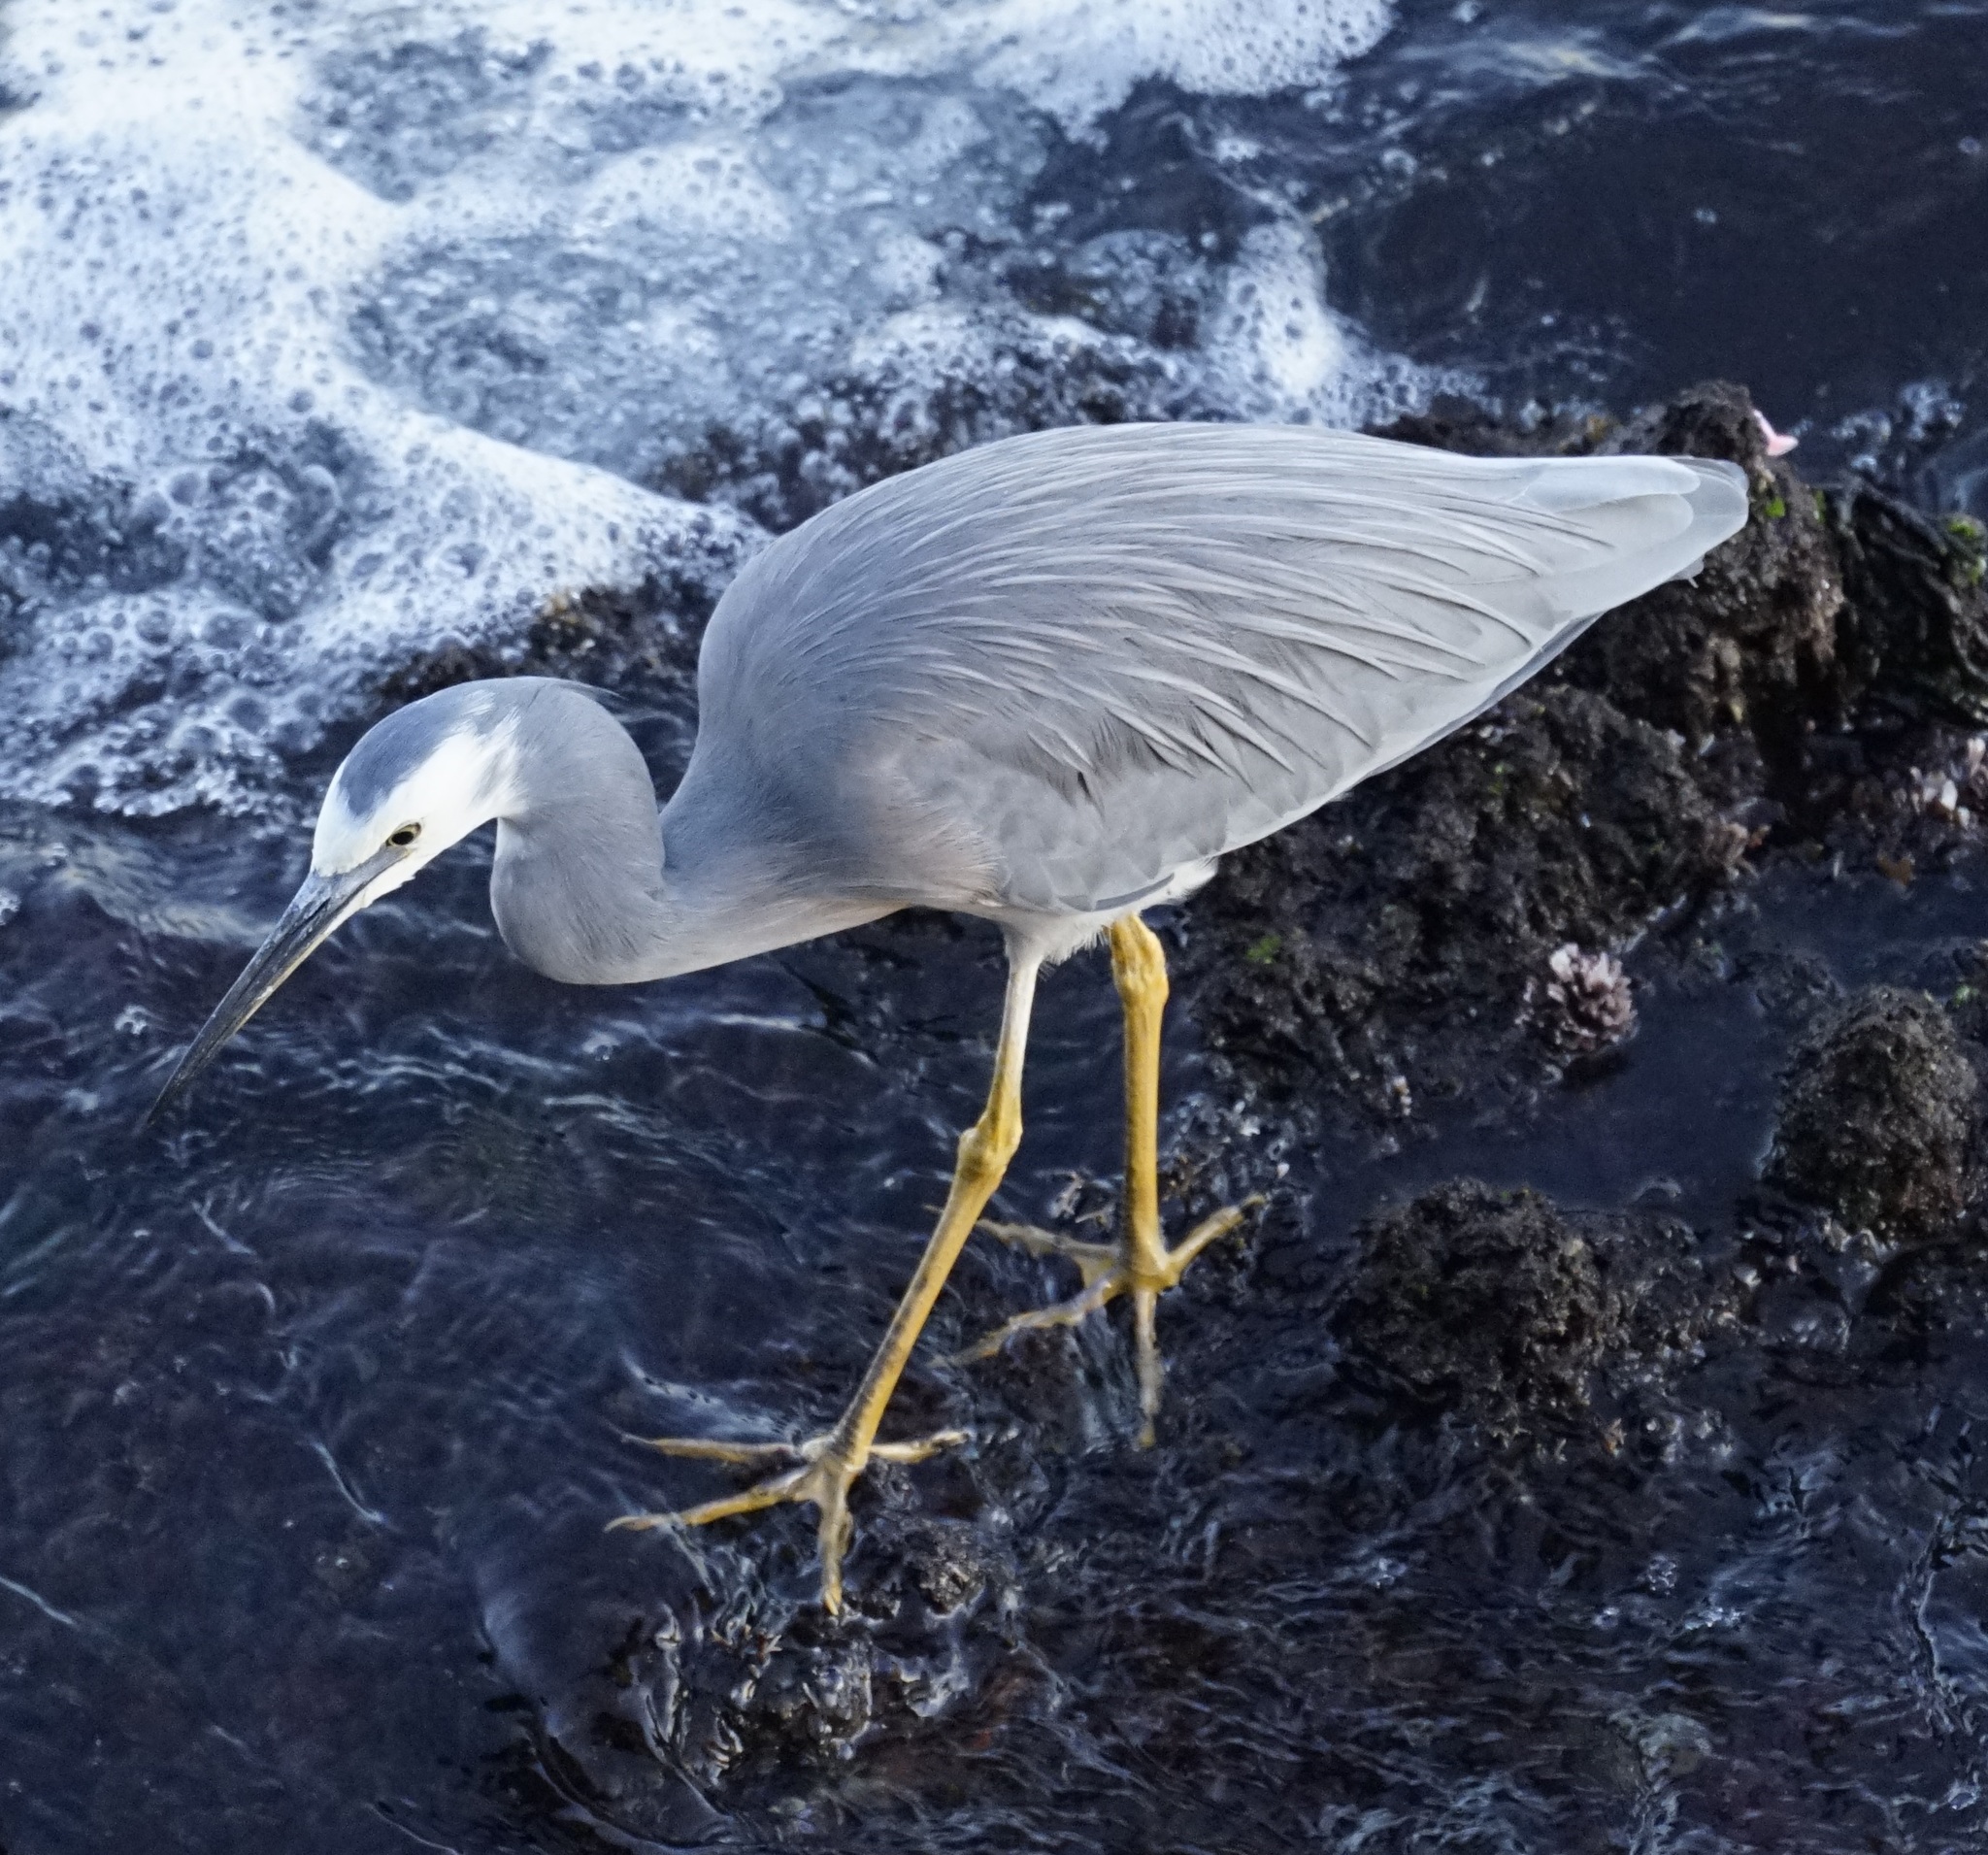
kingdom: Animalia
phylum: Chordata
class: Aves
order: Pelecaniformes
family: Ardeidae
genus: Egretta
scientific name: Egretta novaehollandiae
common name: White-faced heron
